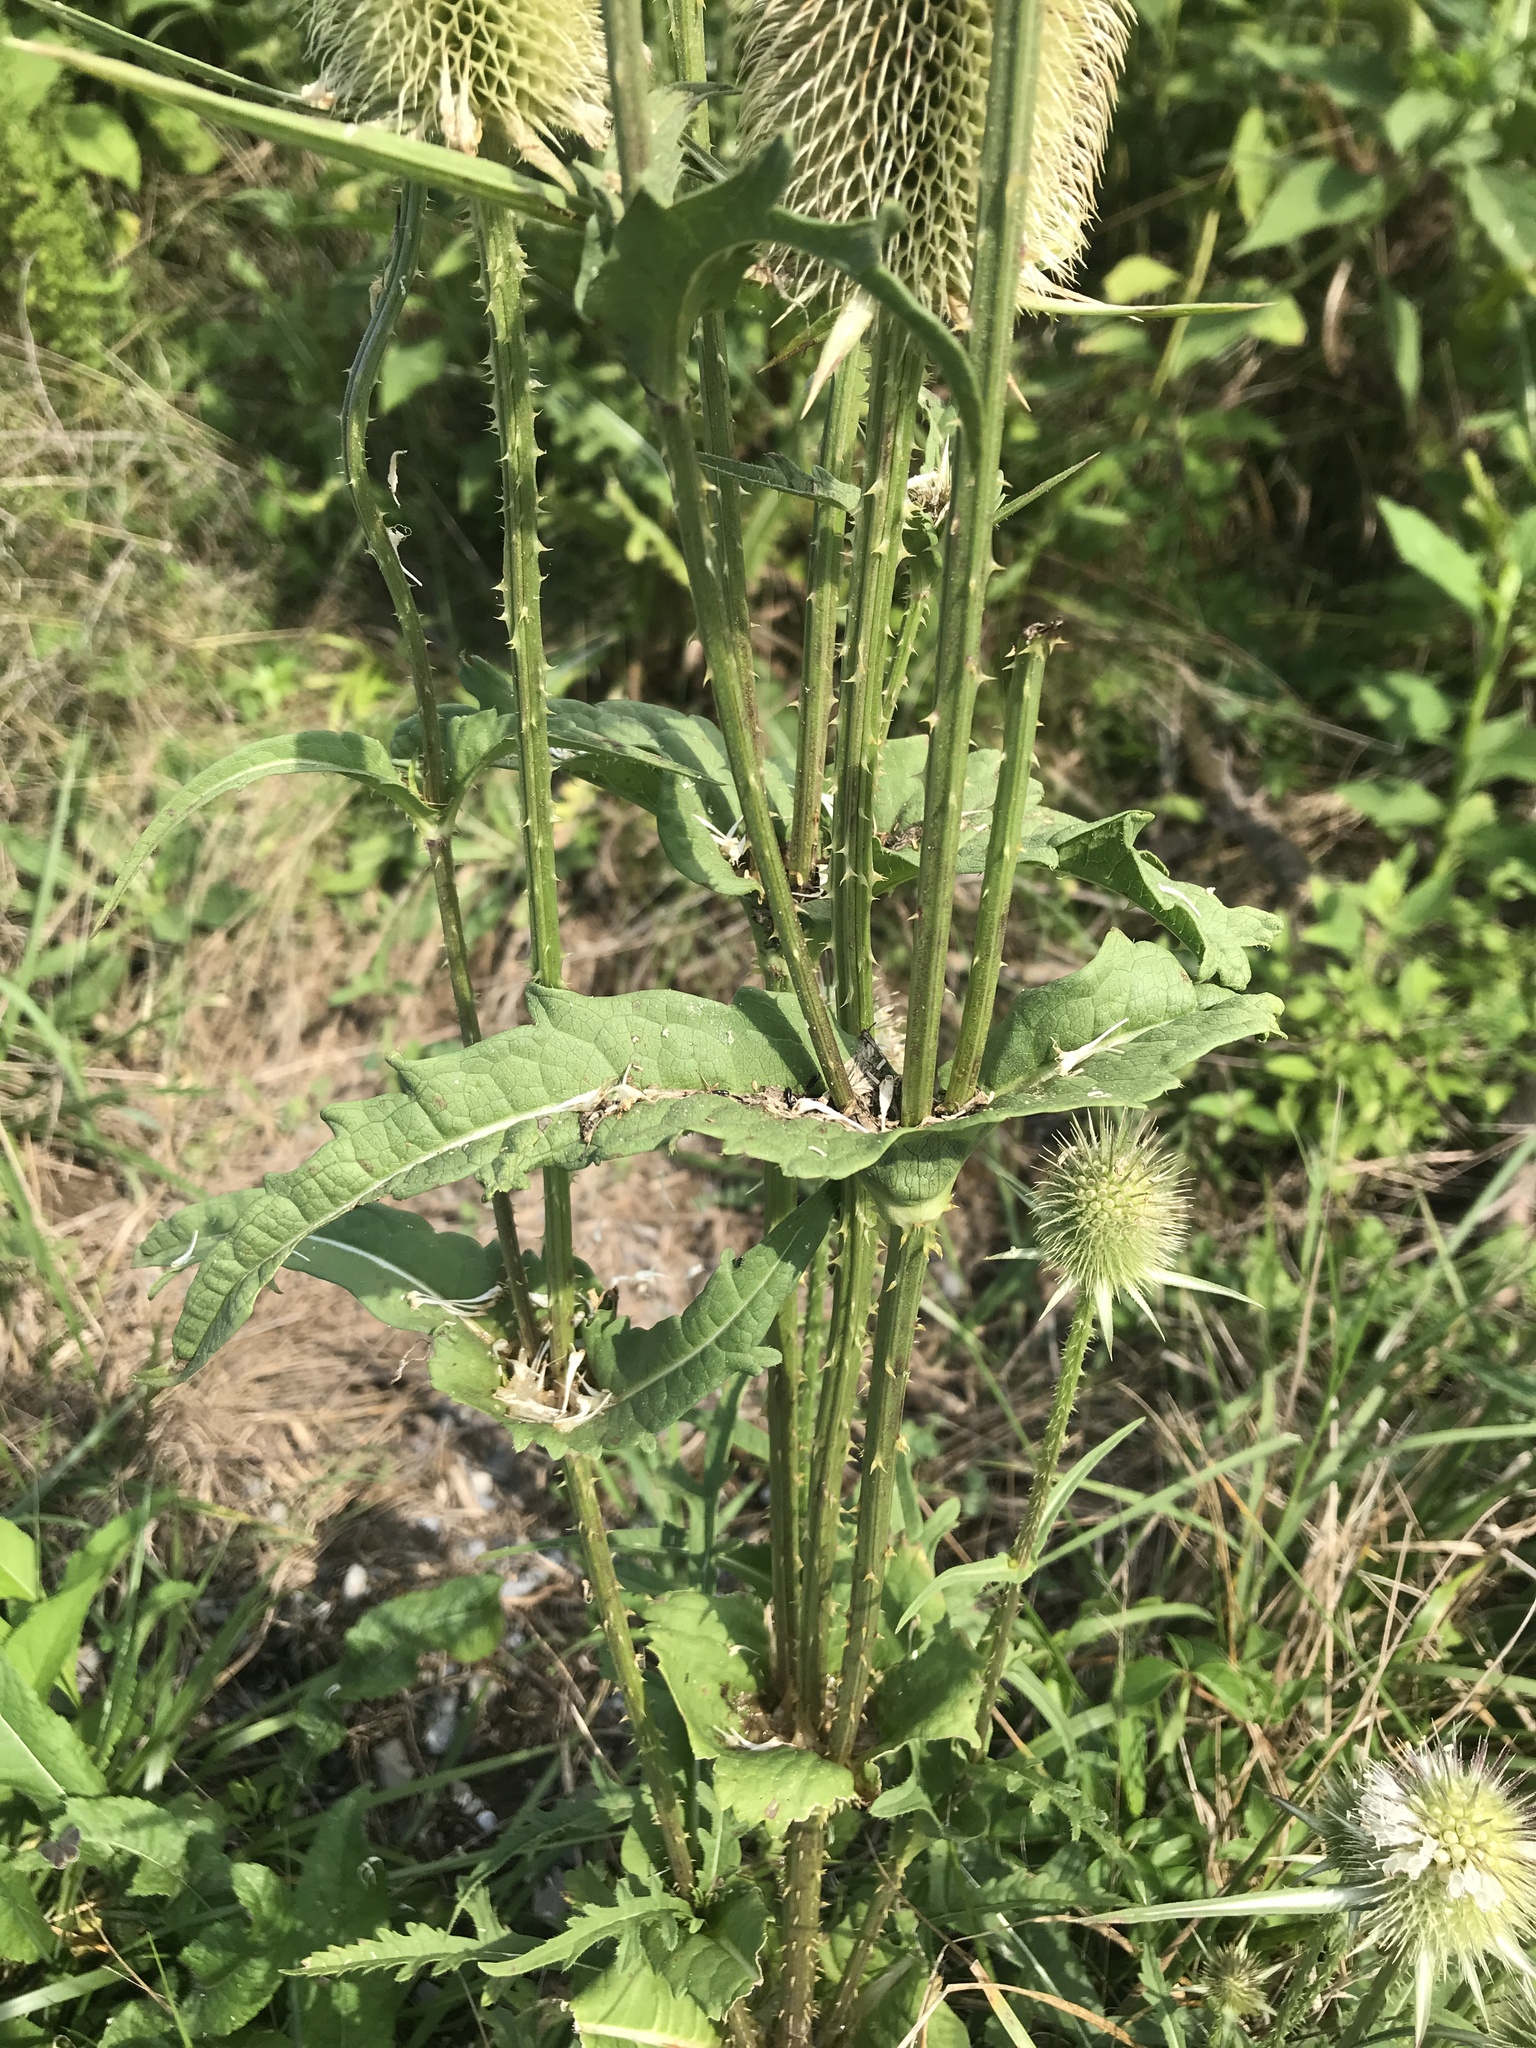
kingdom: Plantae
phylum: Tracheophyta
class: Magnoliopsida
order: Dipsacales
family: Caprifoliaceae
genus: Dipsacus
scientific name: Dipsacus laciniatus
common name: Cut-leaved teasel
